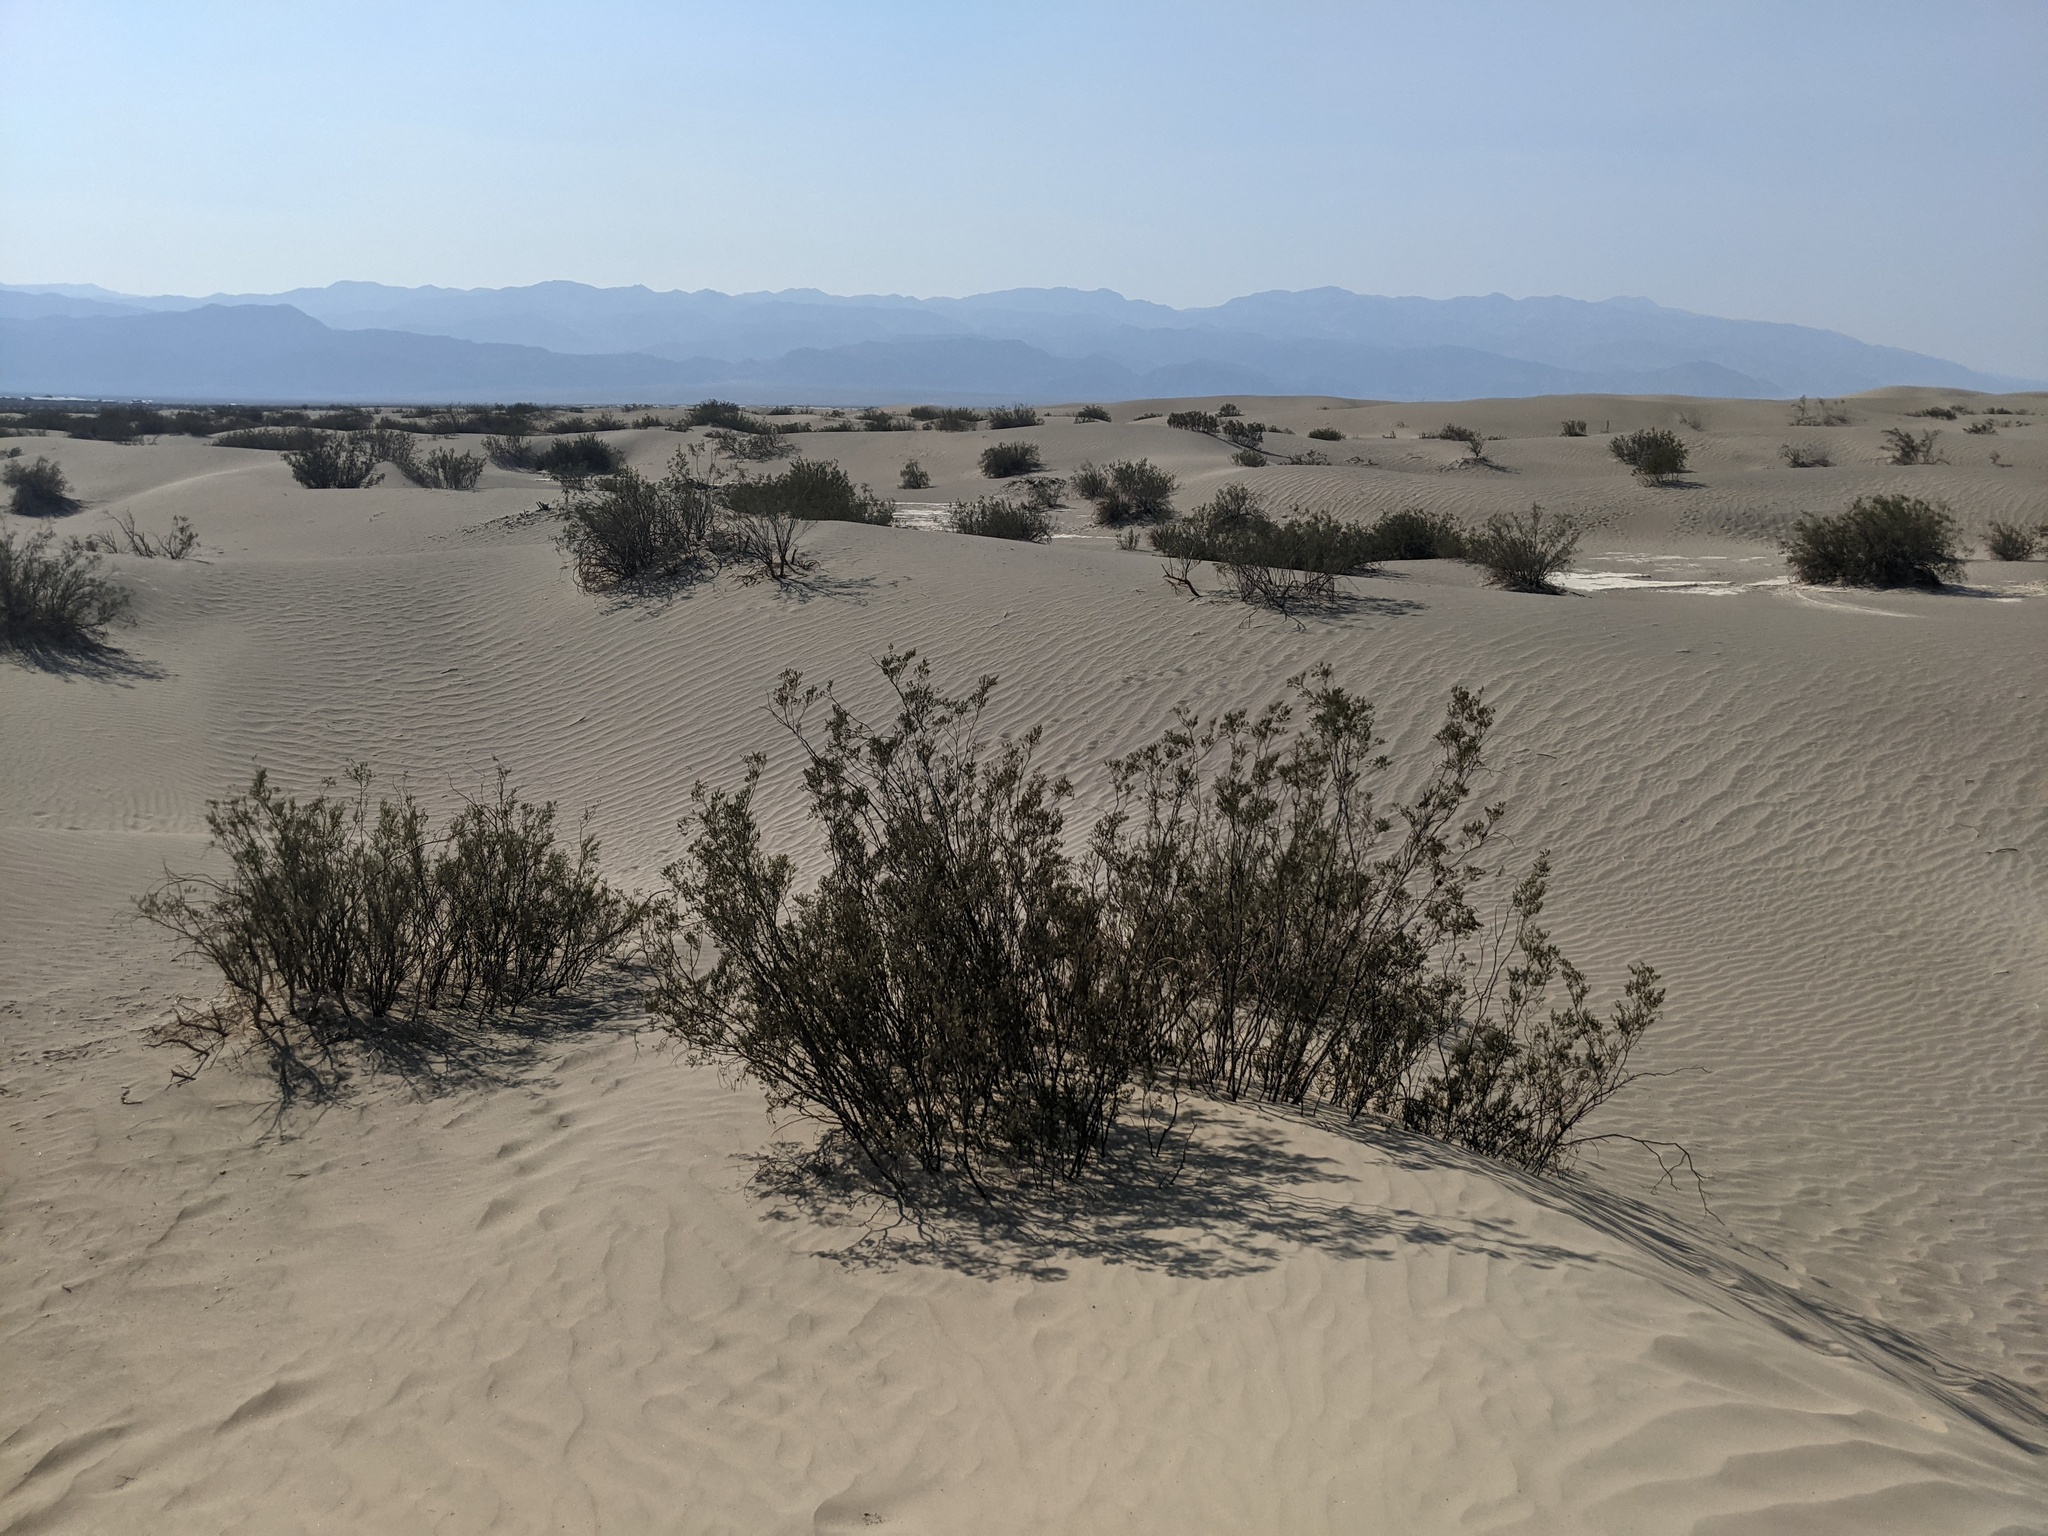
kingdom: Plantae
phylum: Tracheophyta
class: Magnoliopsida
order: Zygophyllales
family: Zygophyllaceae
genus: Larrea
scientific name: Larrea tridentata
